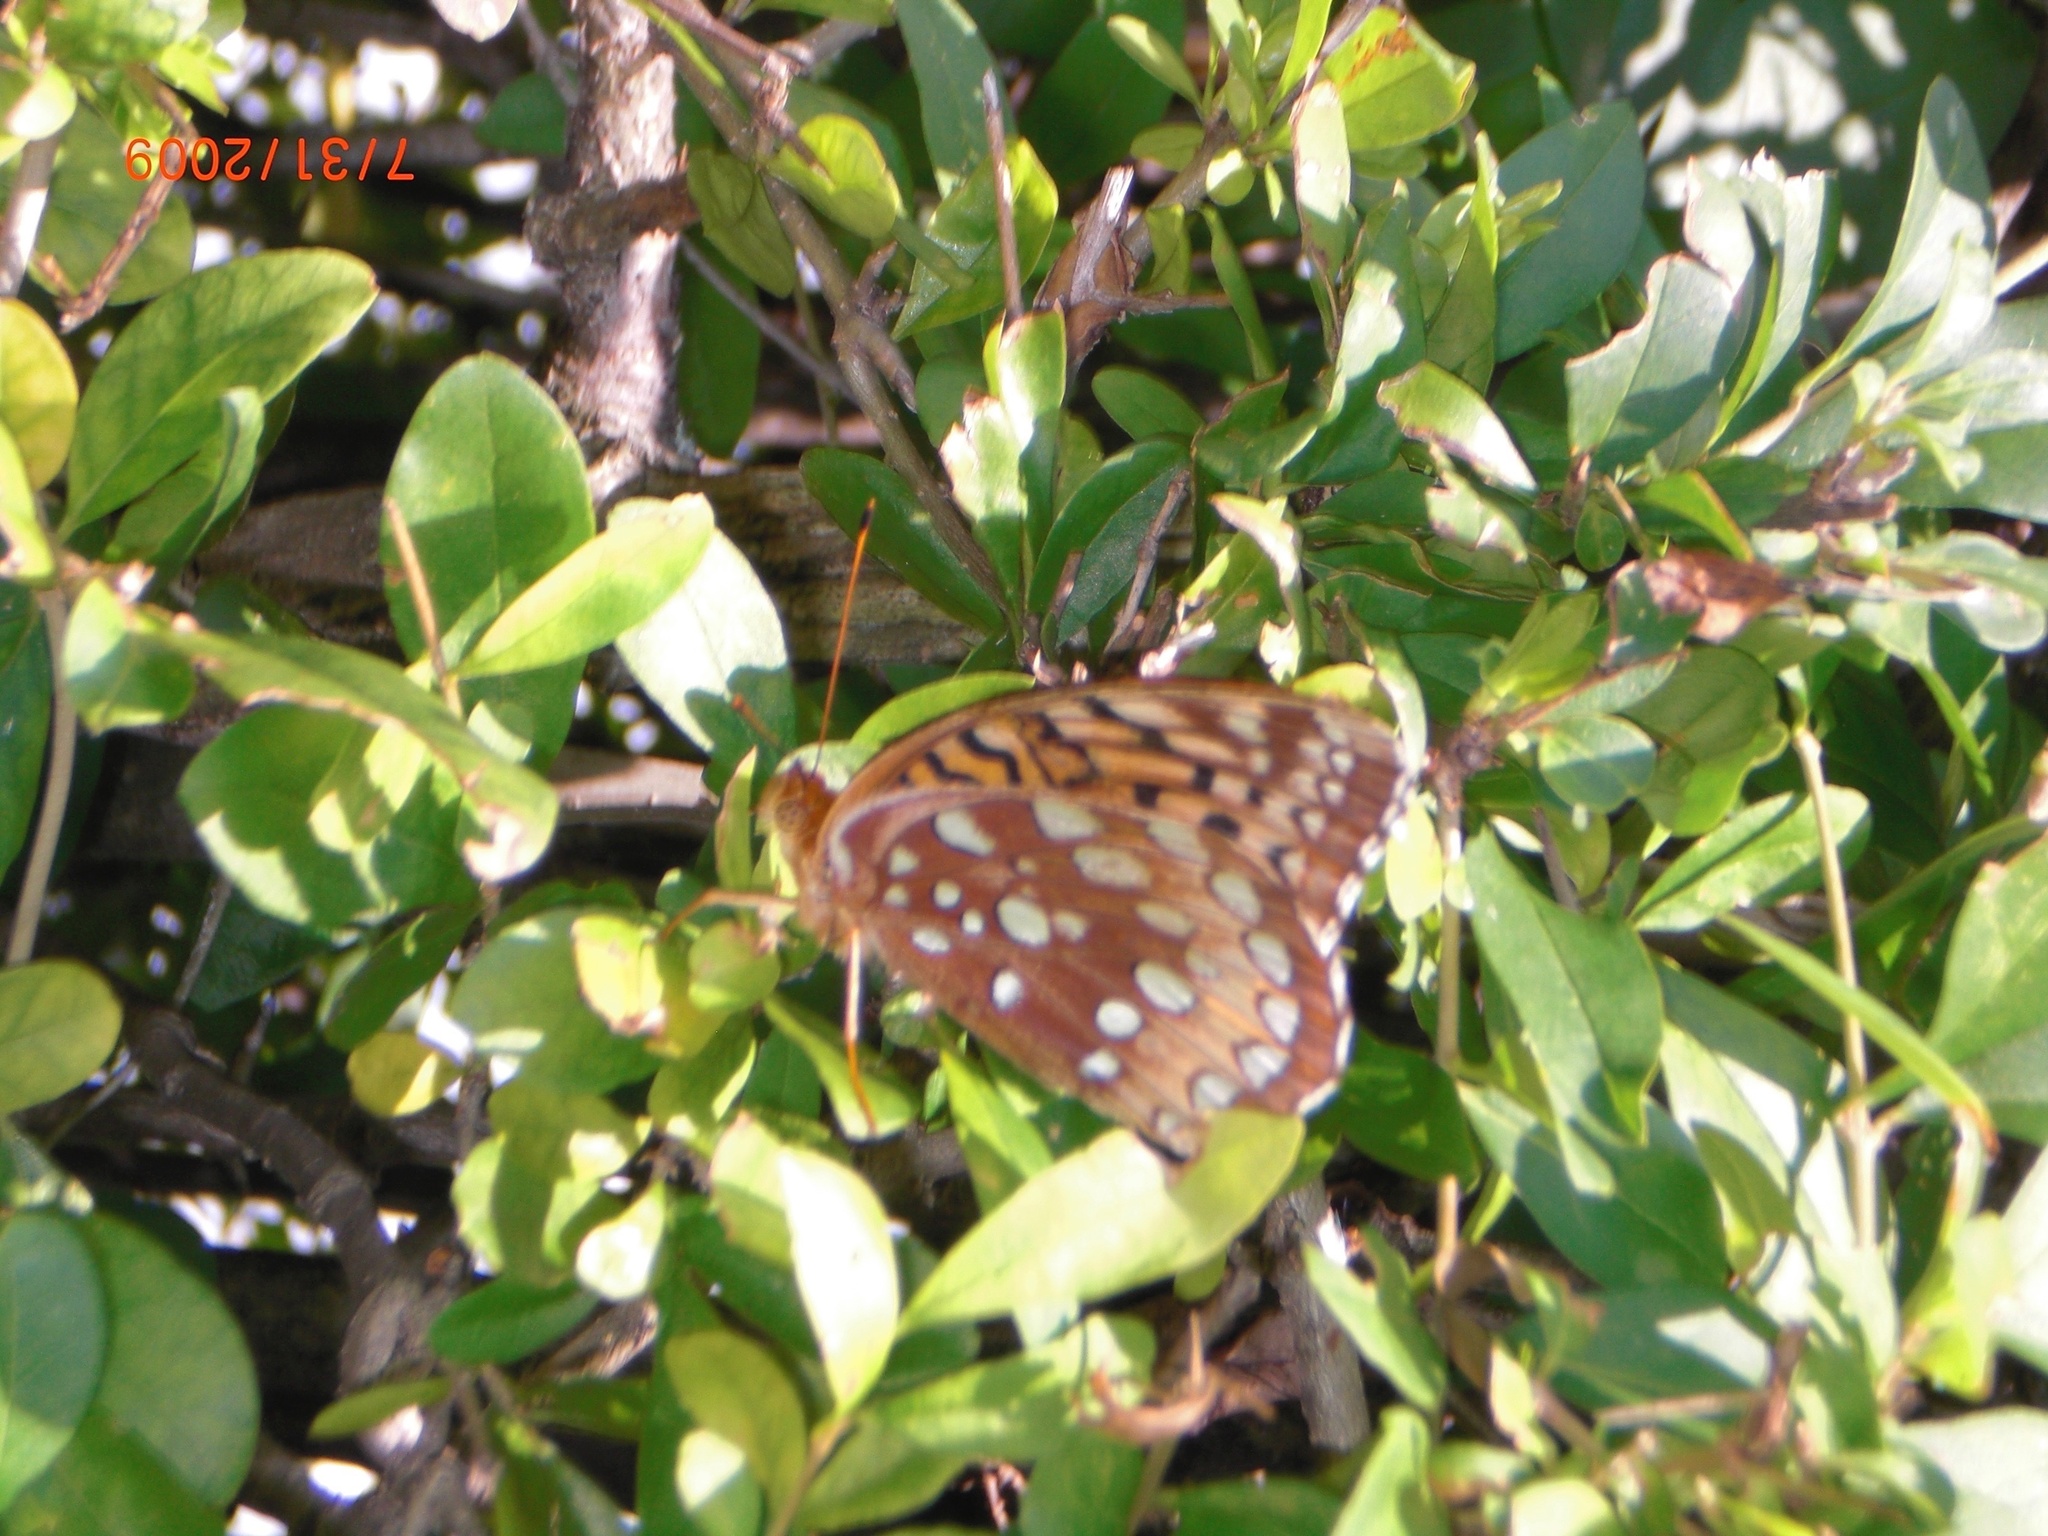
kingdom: Animalia
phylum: Arthropoda
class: Insecta
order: Lepidoptera
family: Nymphalidae
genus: Speyeria
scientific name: Speyeria cybele
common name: Great spangled fritillary
